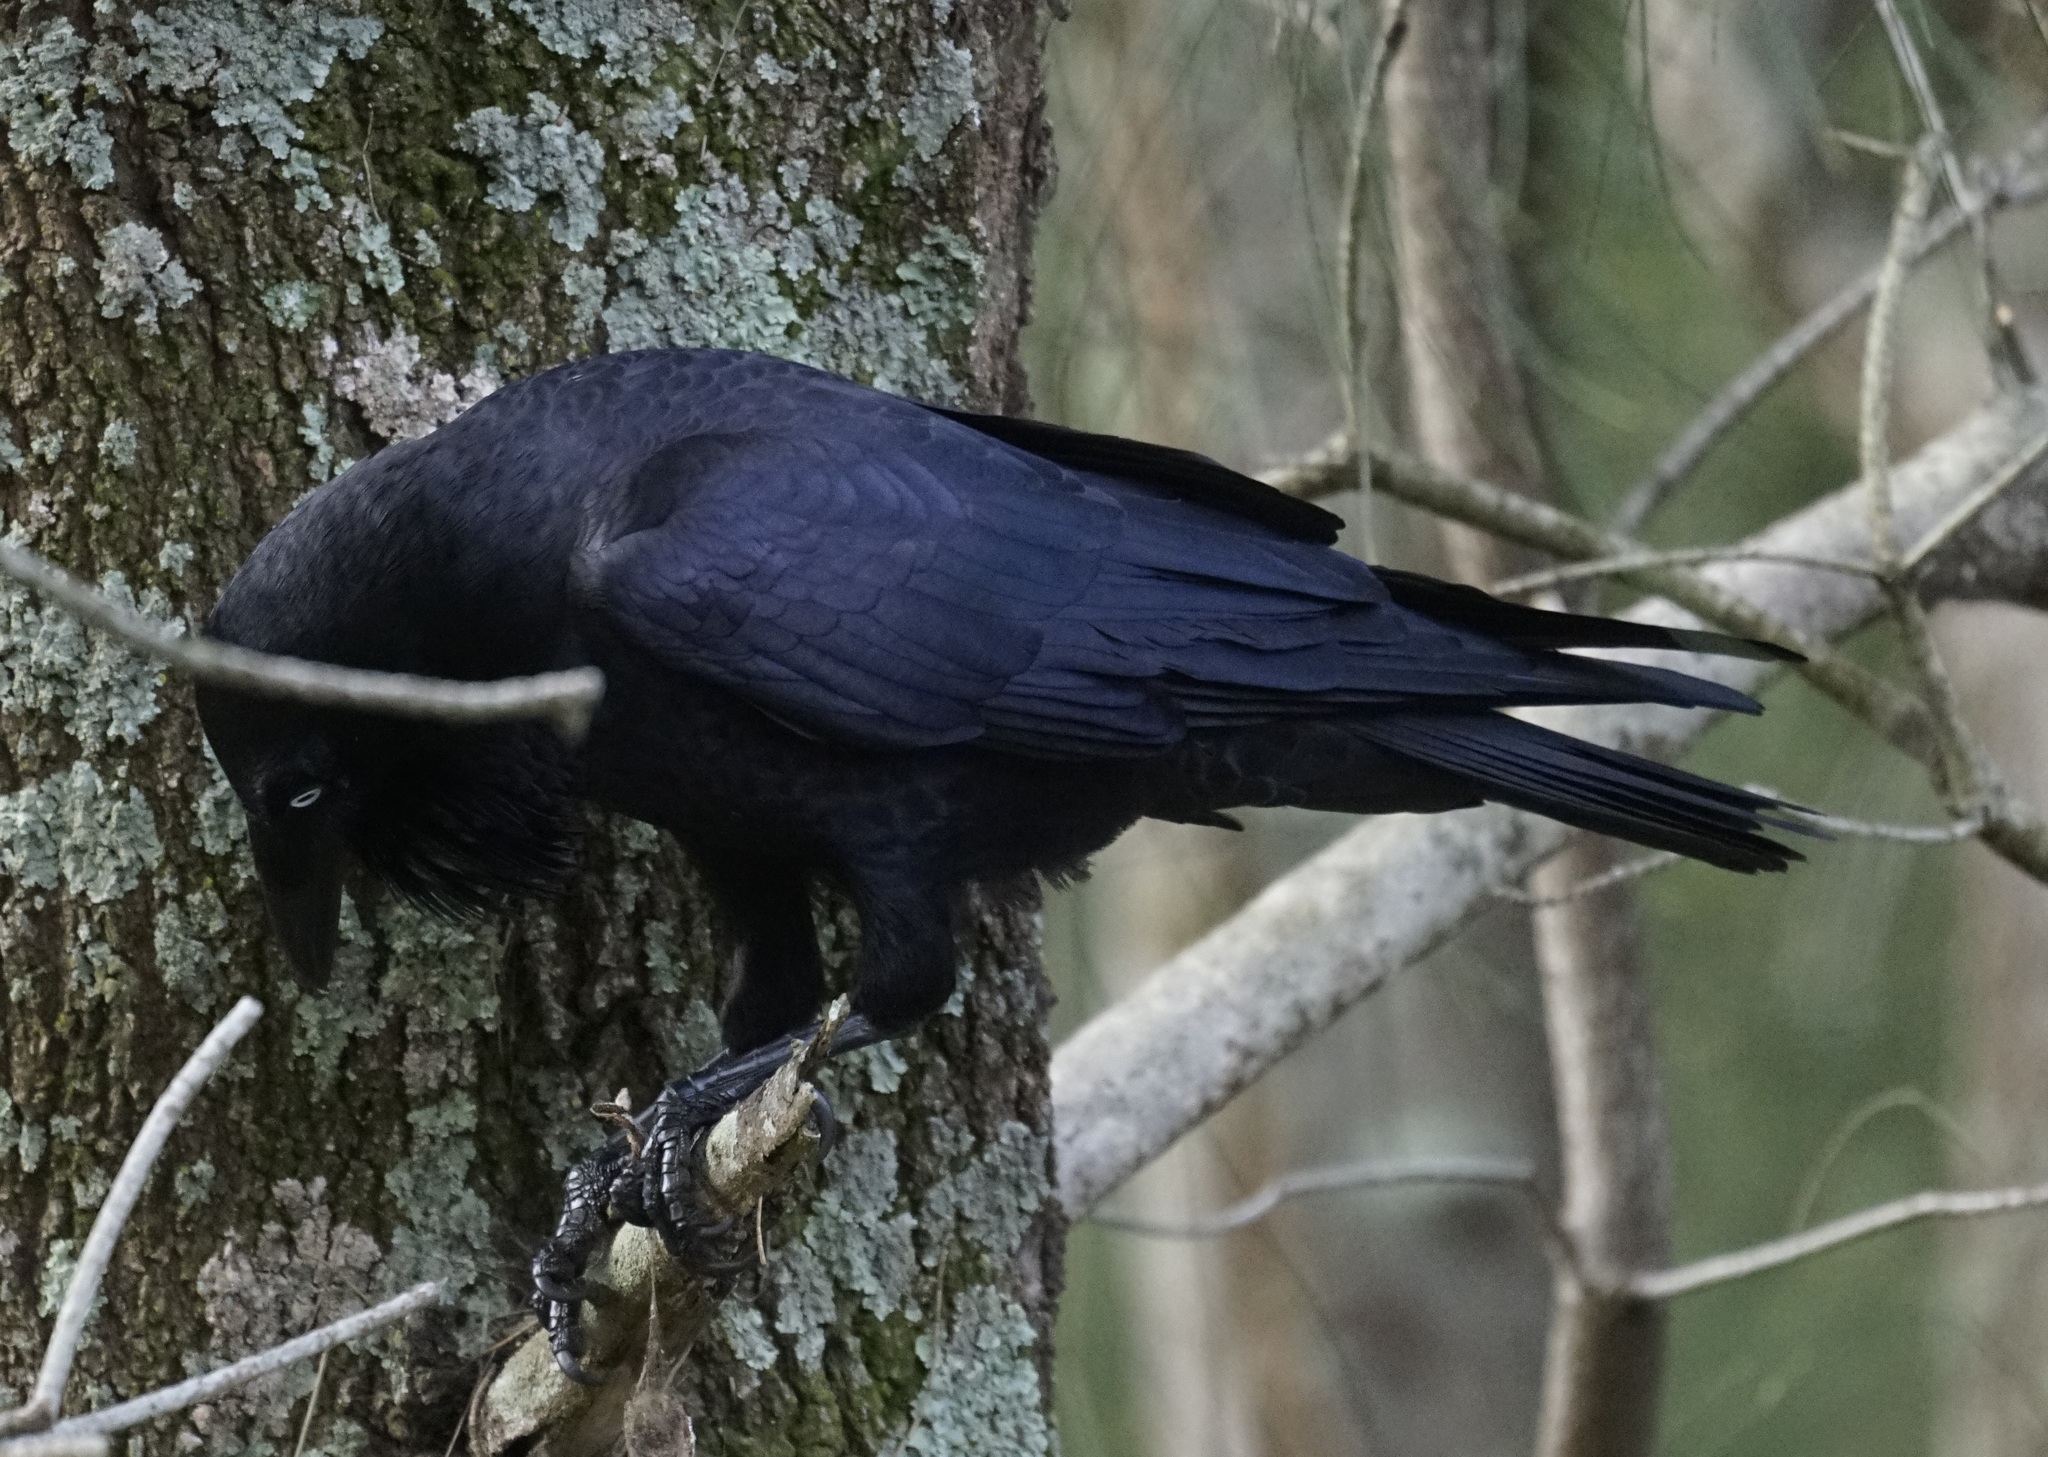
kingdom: Animalia
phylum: Chordata
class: Aves
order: Passeriformes
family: Corvidae
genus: Corvus
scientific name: Corvus coronoides
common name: Australian raven
